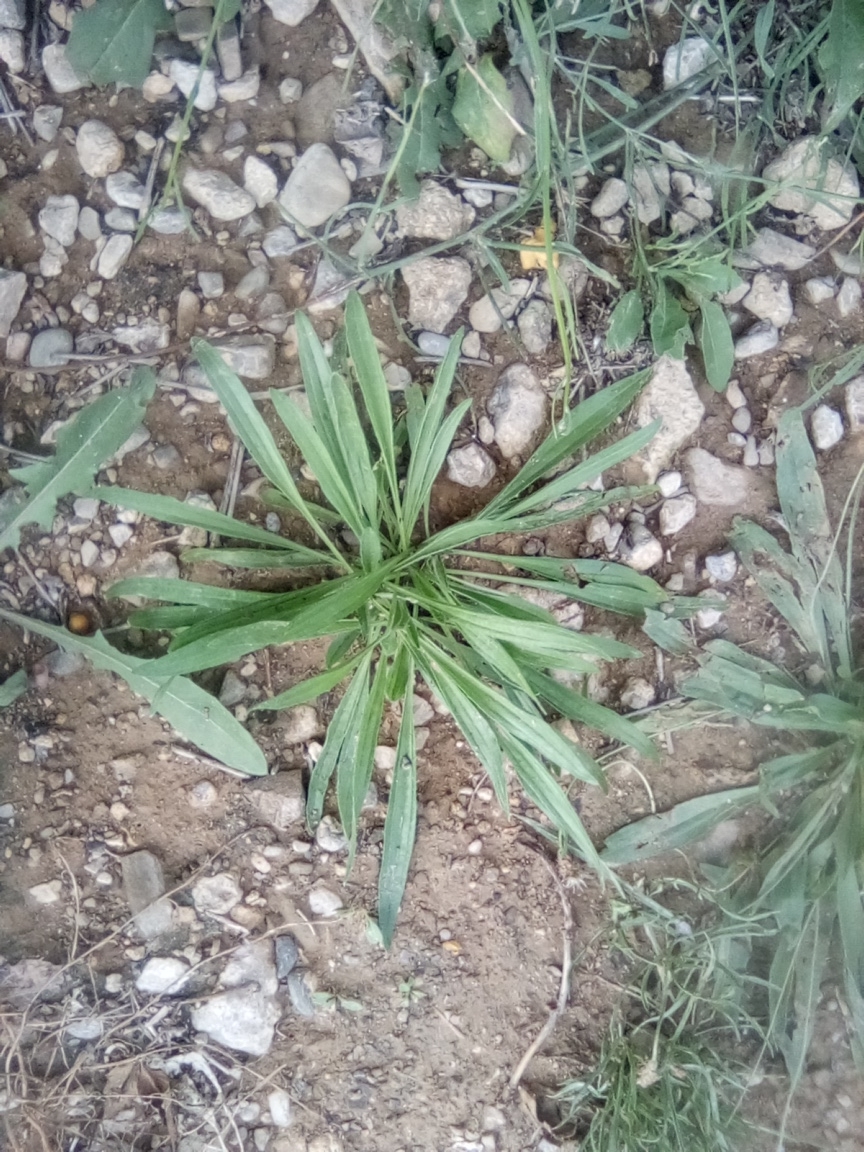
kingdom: Plantae
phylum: Tracheophyta
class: Magnoliopsida
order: Lamiales
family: Plantaginaceae
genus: Plantago
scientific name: Plantago lanceolata
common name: Ribwort plantain
